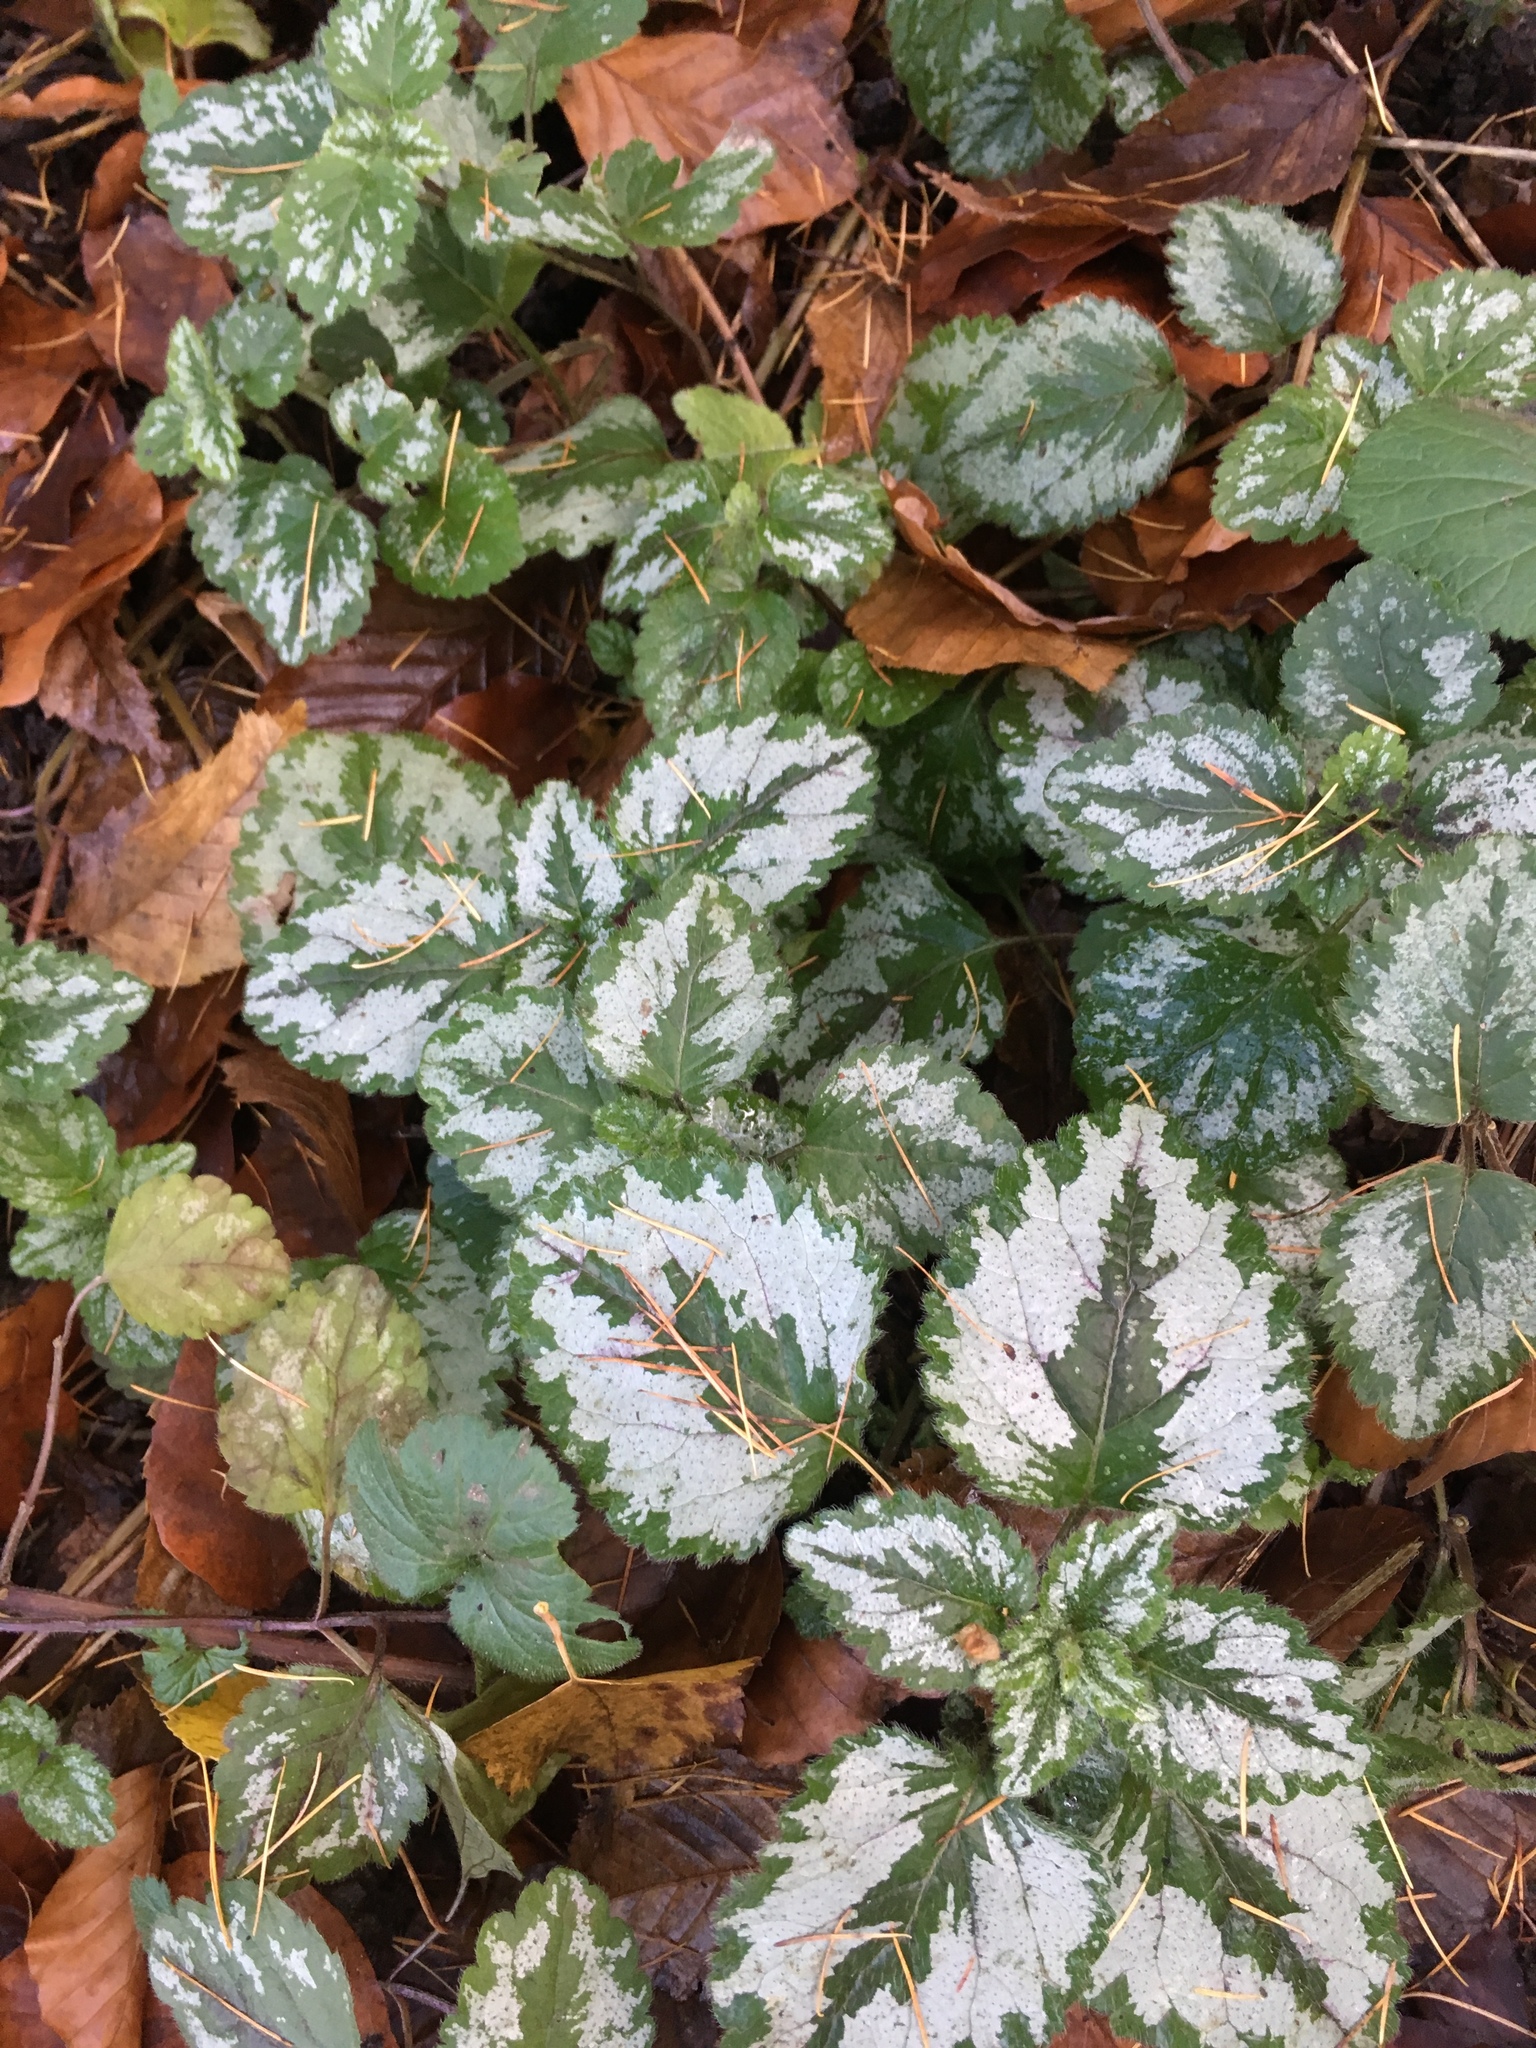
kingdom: Plantae
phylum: Tracheophyta
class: Magnoliopsida
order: Lamiales
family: Lamiaceae
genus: Lamium
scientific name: Lamium galeobdolon
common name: Yellow archangel
